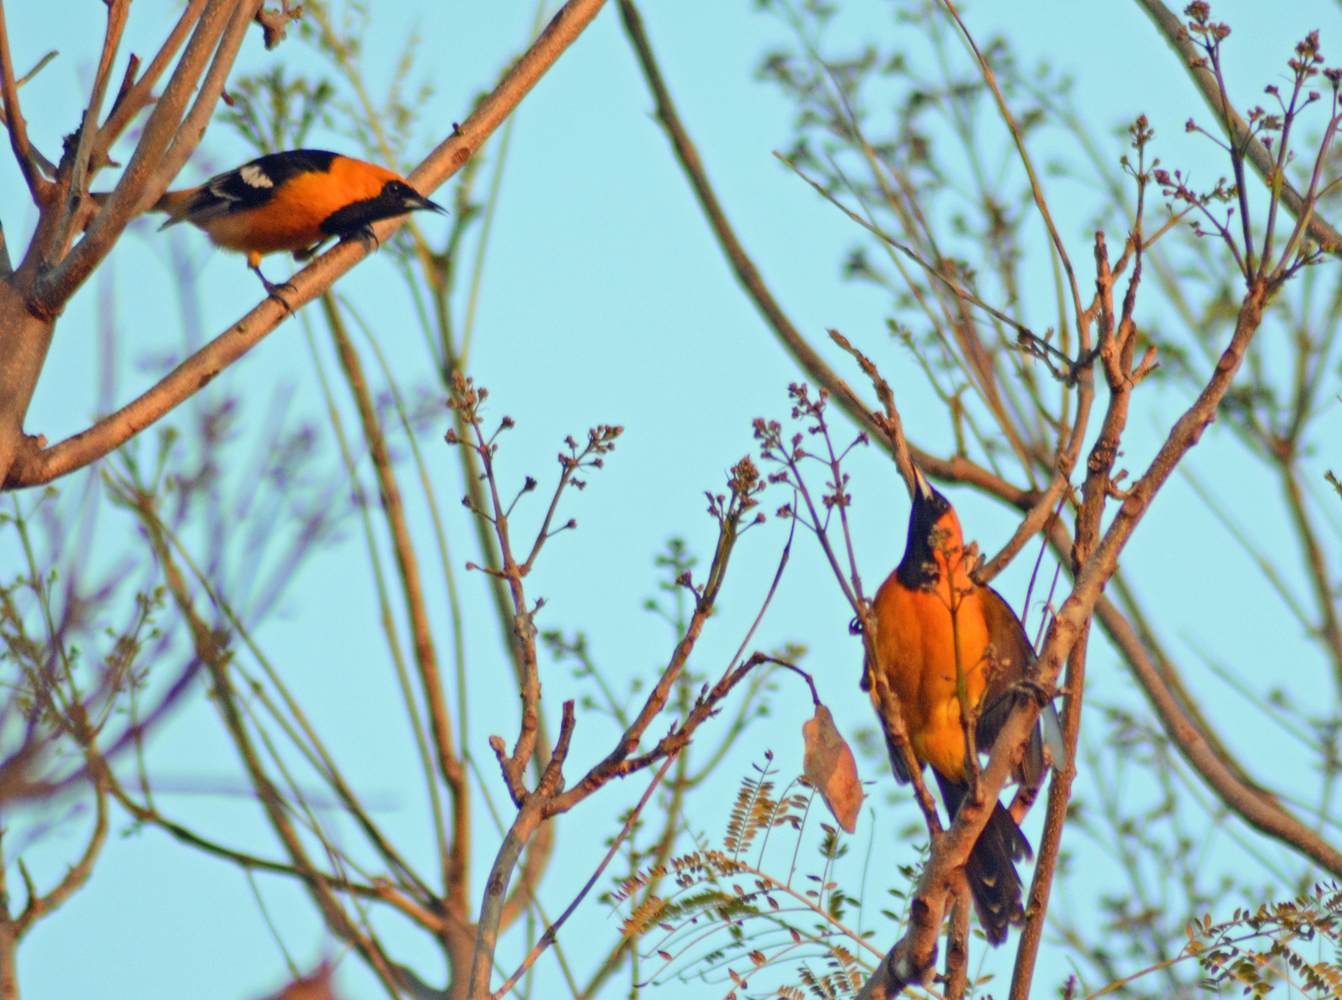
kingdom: Animalia
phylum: Chordata
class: Aves
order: Passeriformes
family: Icteridae
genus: Icterus
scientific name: Icterus cucullatus
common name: Hooded oriole
